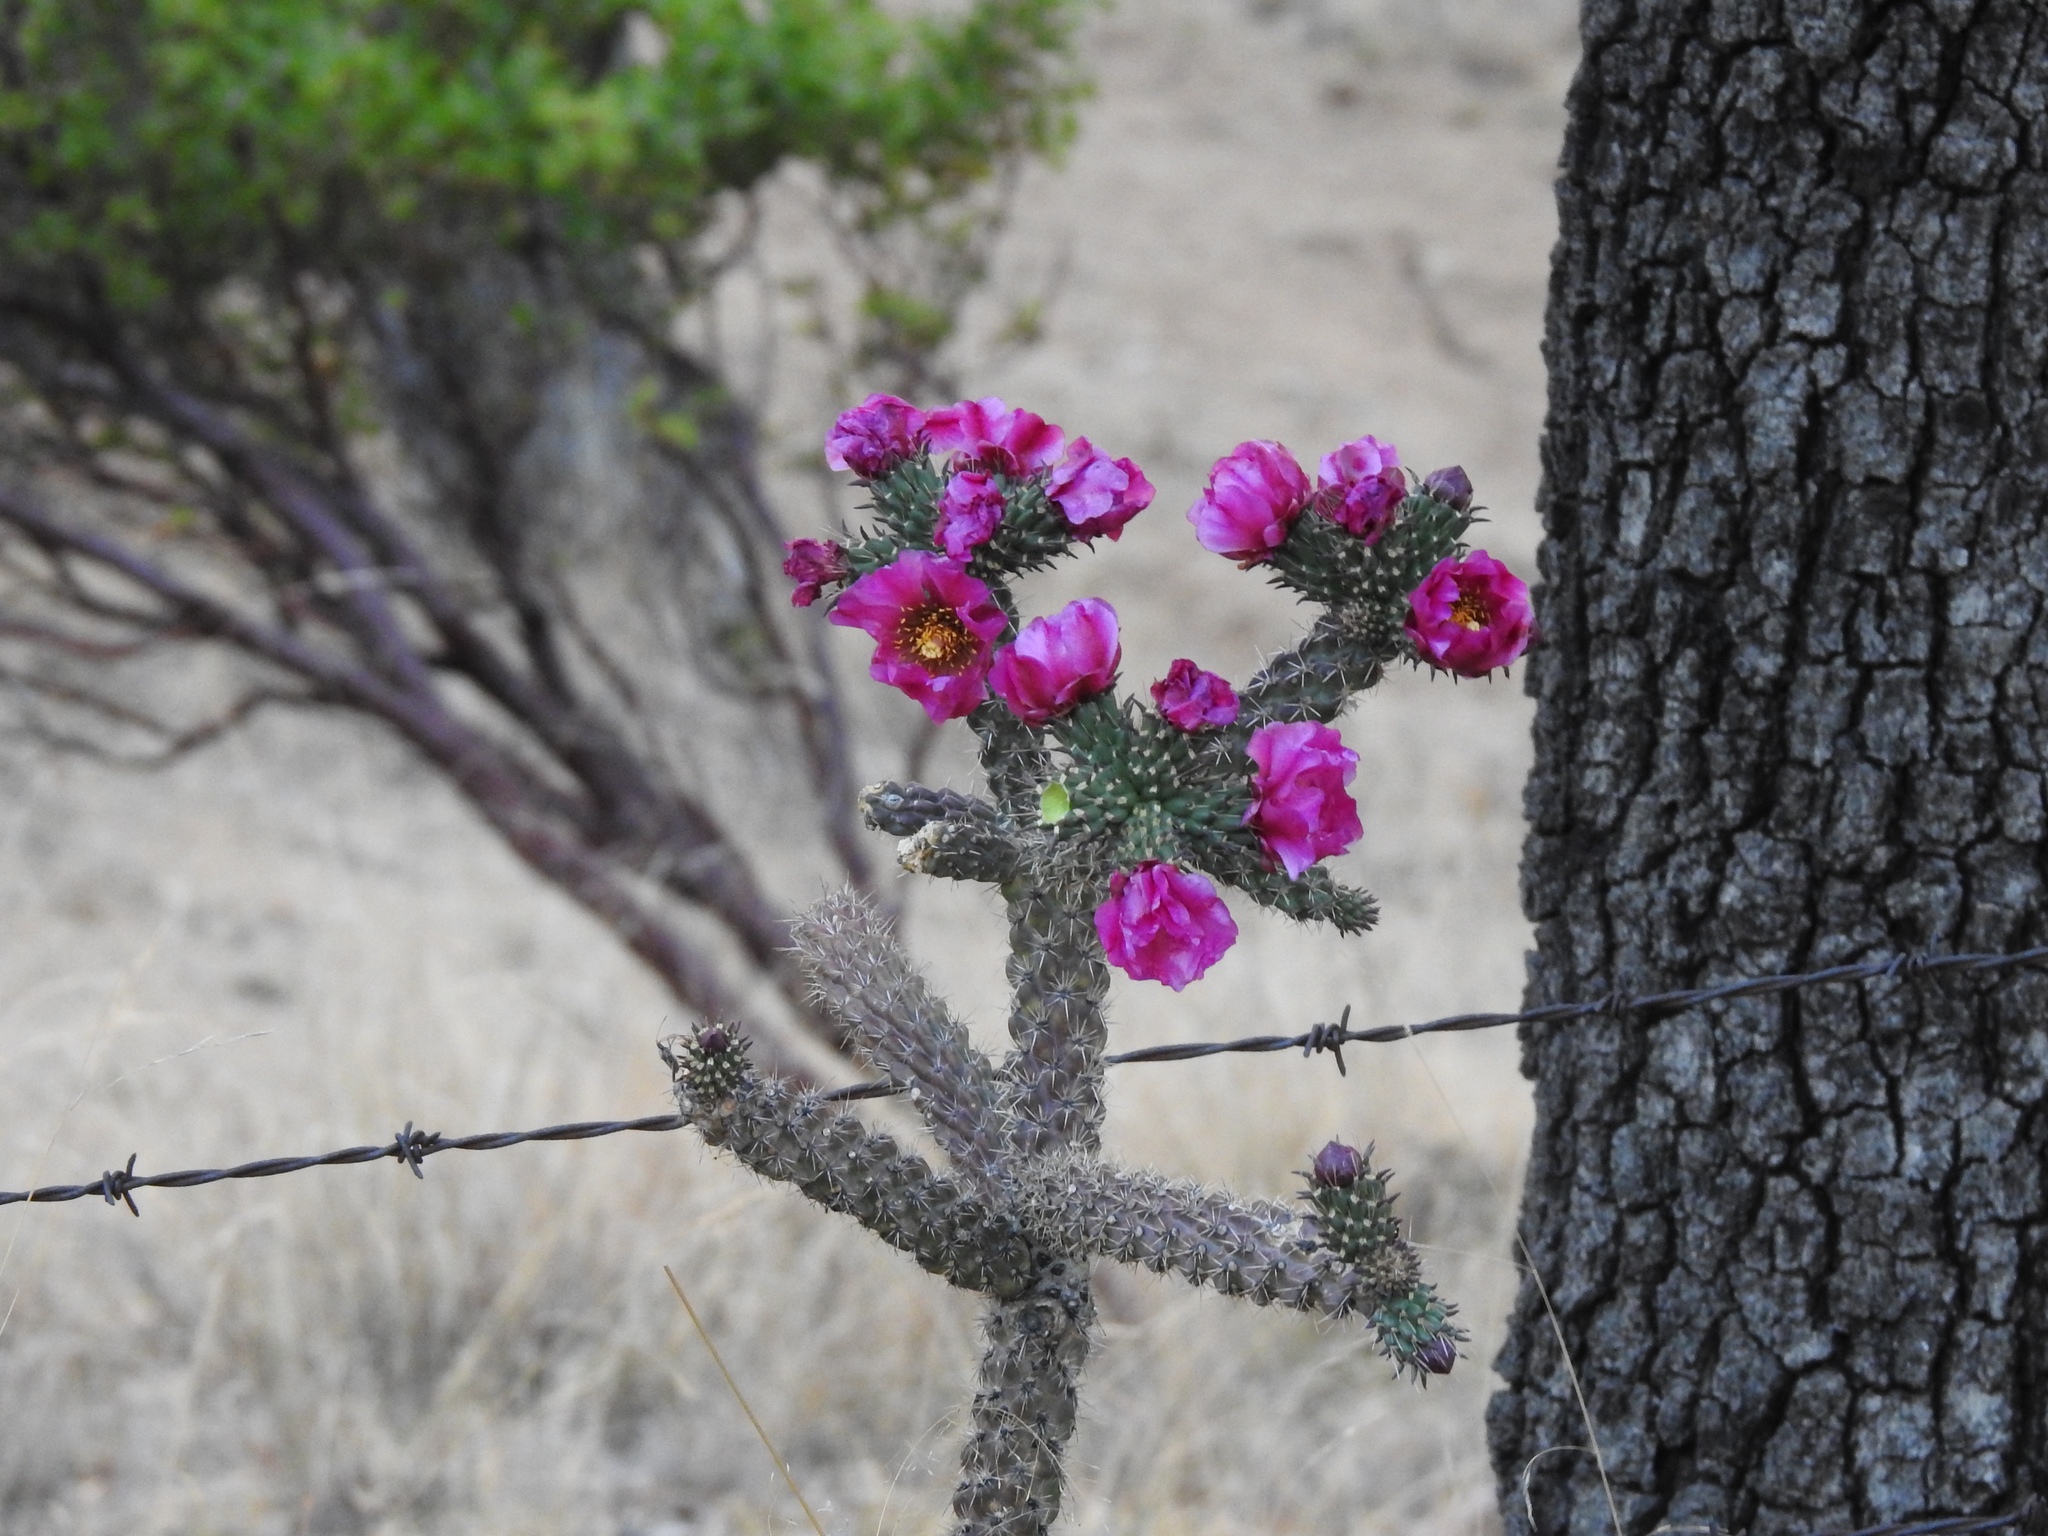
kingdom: Plantae
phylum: Tracheophyta
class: Magnoliopsida
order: Caryophyllales
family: Cactaceae
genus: Cylindropuntia
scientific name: Cylindropuntia imbricata
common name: Candelabrum cactus
